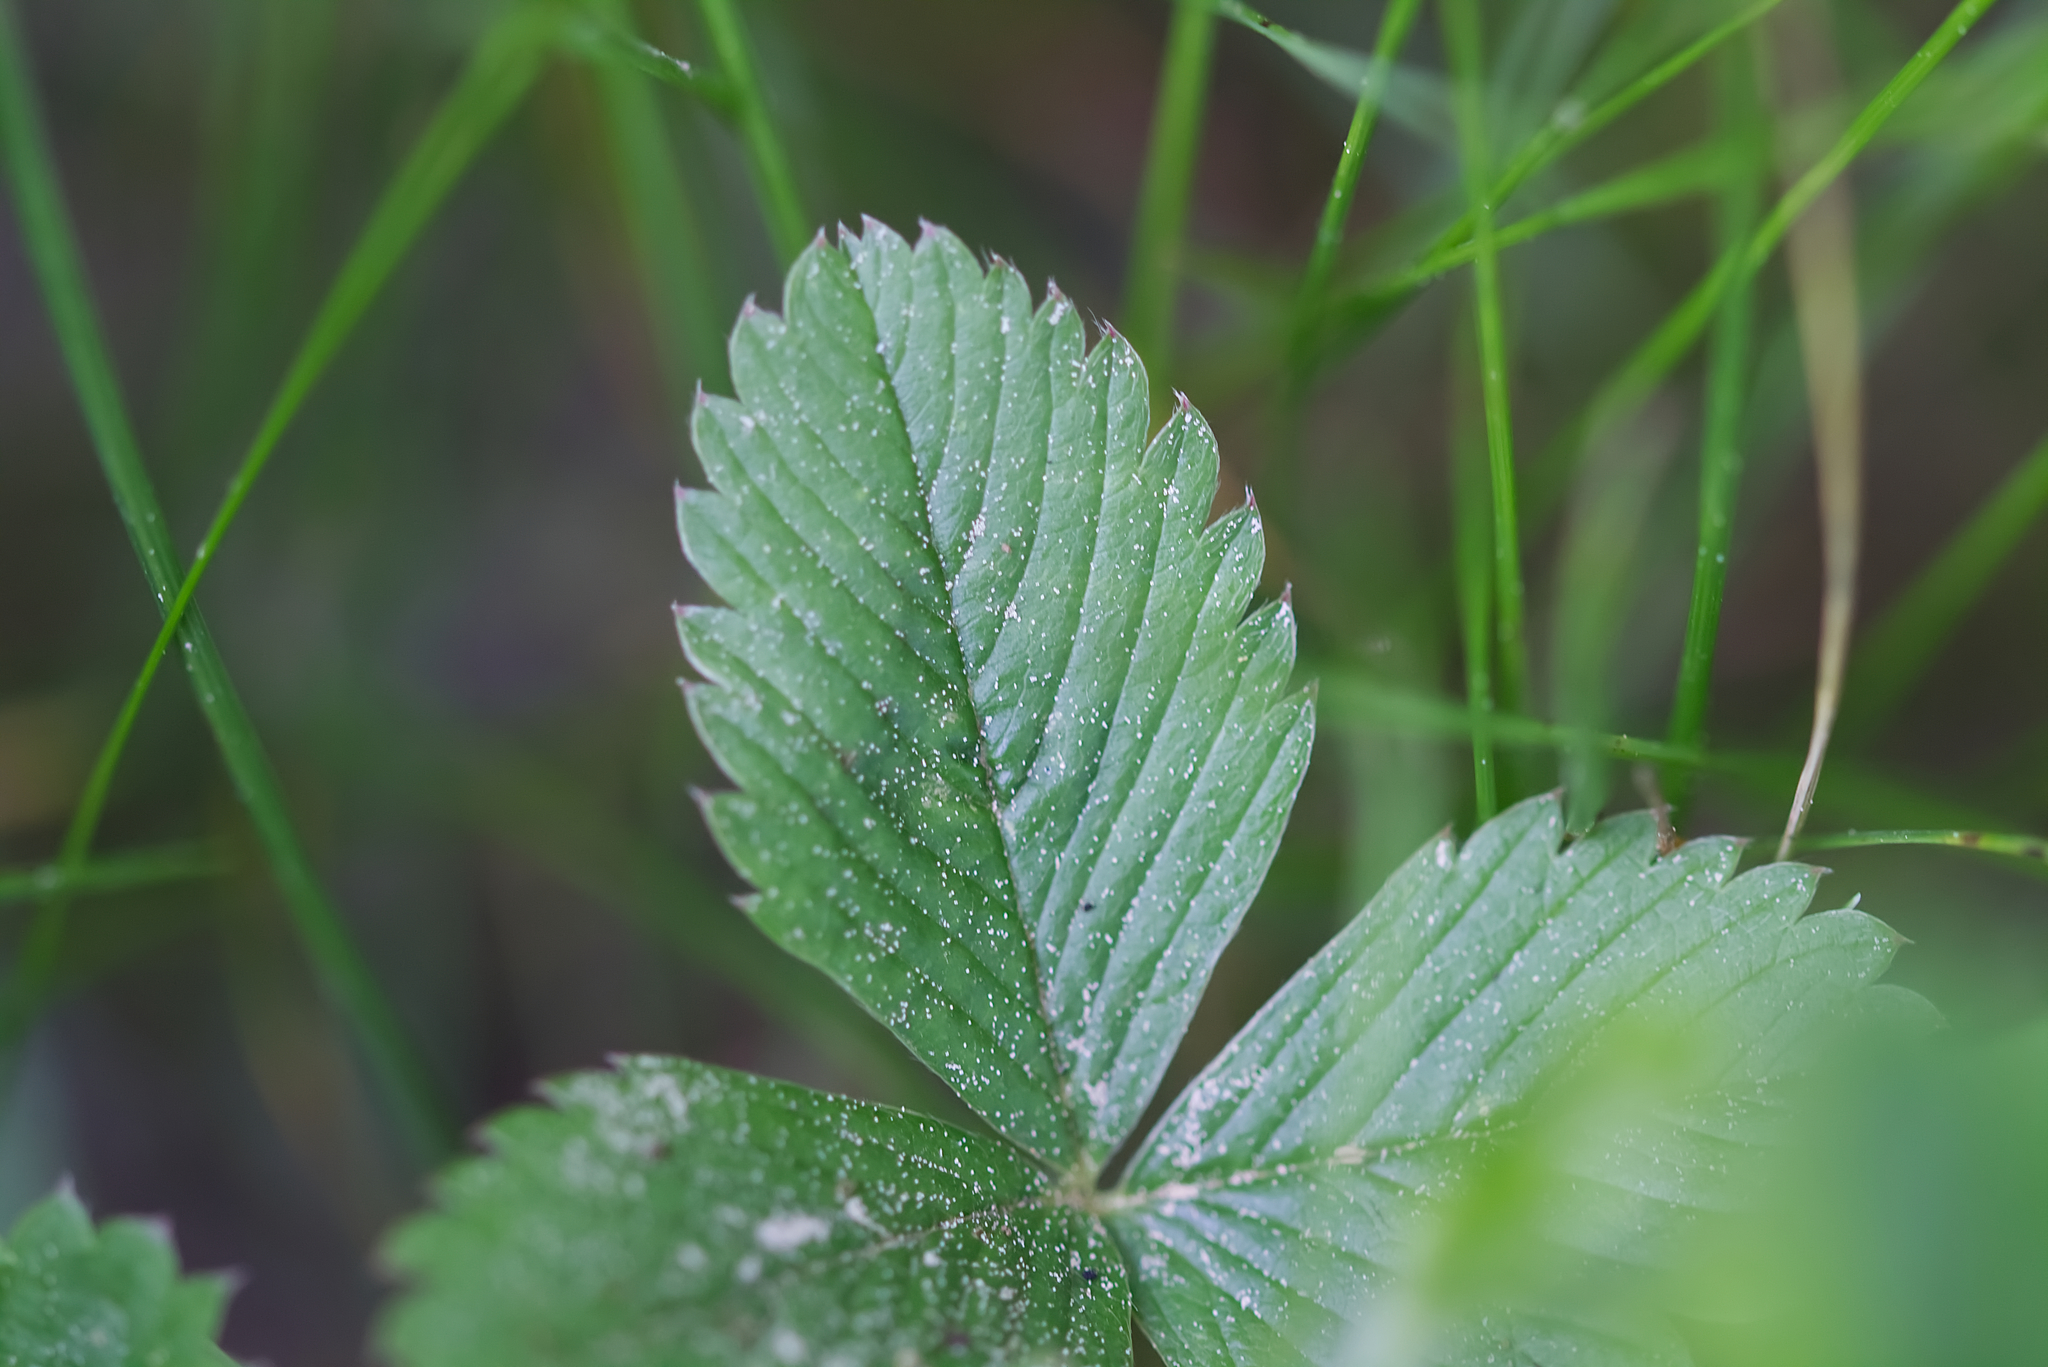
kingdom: Plantae
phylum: Tracheophyta
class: Magnoliopsida
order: Rosales
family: Rosaceae
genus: Fragaria
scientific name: Fragaria viridis
